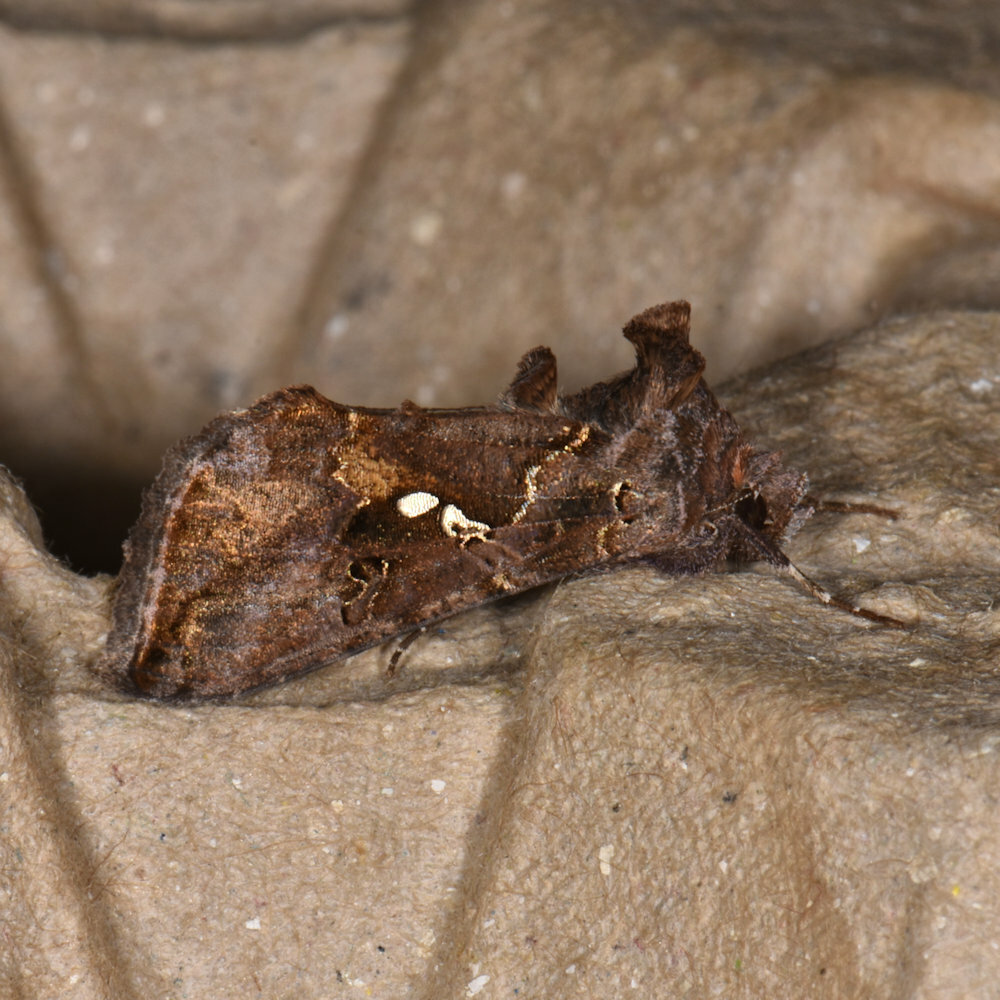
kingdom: Animalia
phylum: Arthropoda
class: Insecta
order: Lepidoptera
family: Noctuidae
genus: Autographa
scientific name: Autographa precationis
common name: Common looper moth
